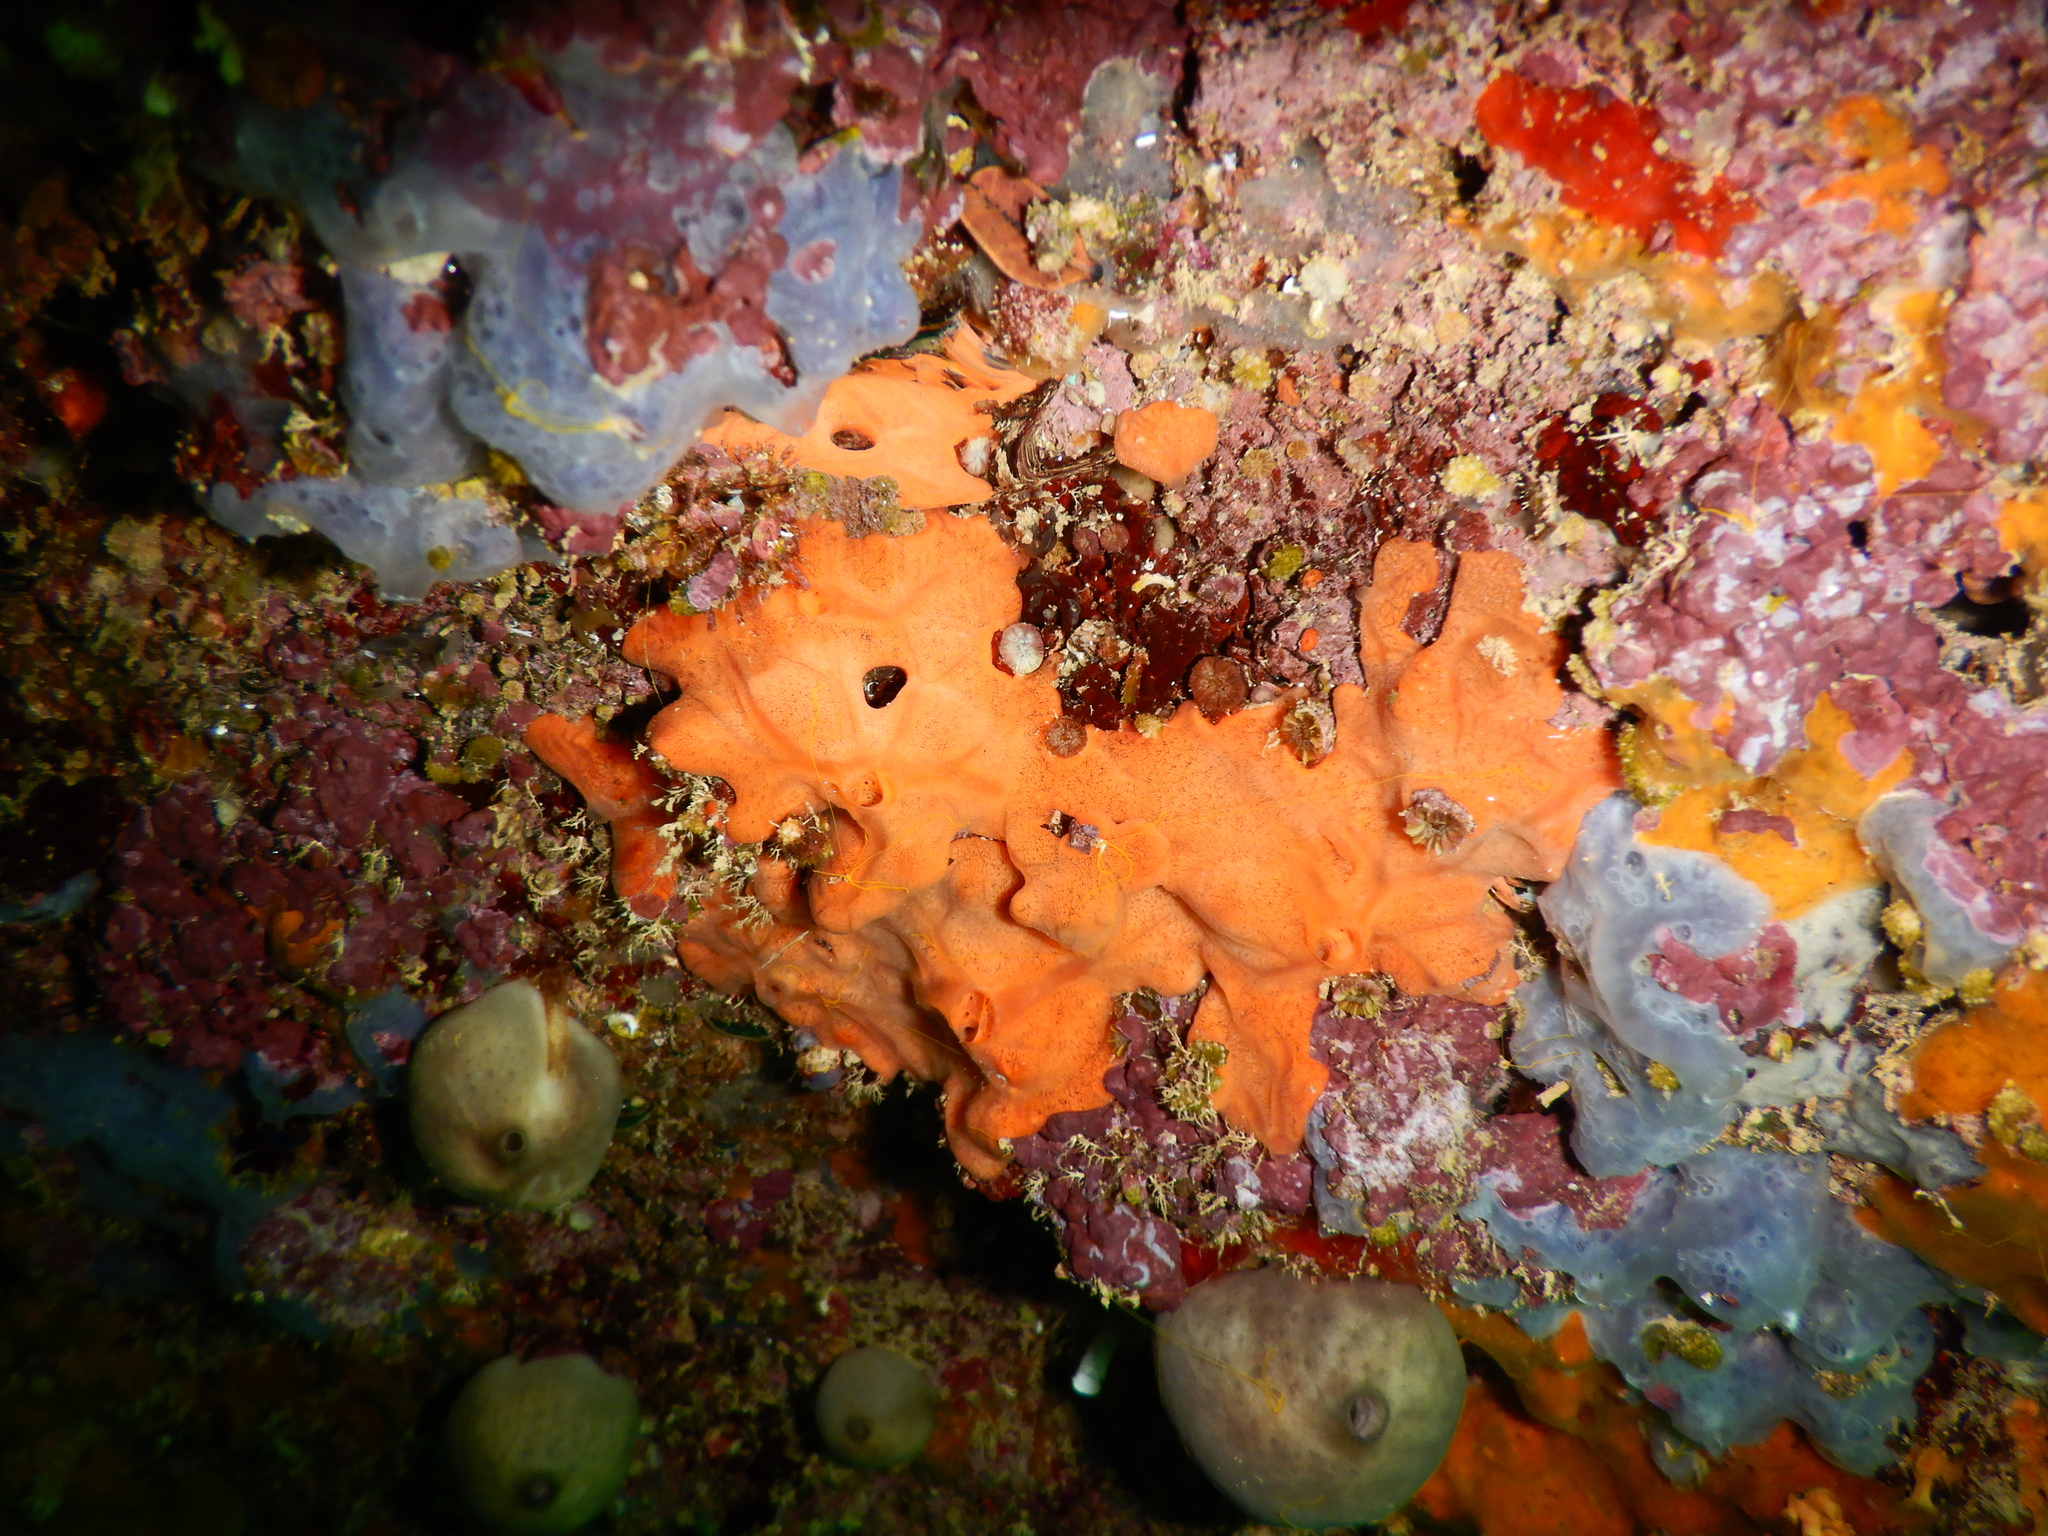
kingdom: Animalia
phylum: Porifera
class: Demospongiae
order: Clionaida
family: Spirastrellidae
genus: Spirastrella
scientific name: Spirastrella cunctatrix
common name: Encrusting orange sponge
